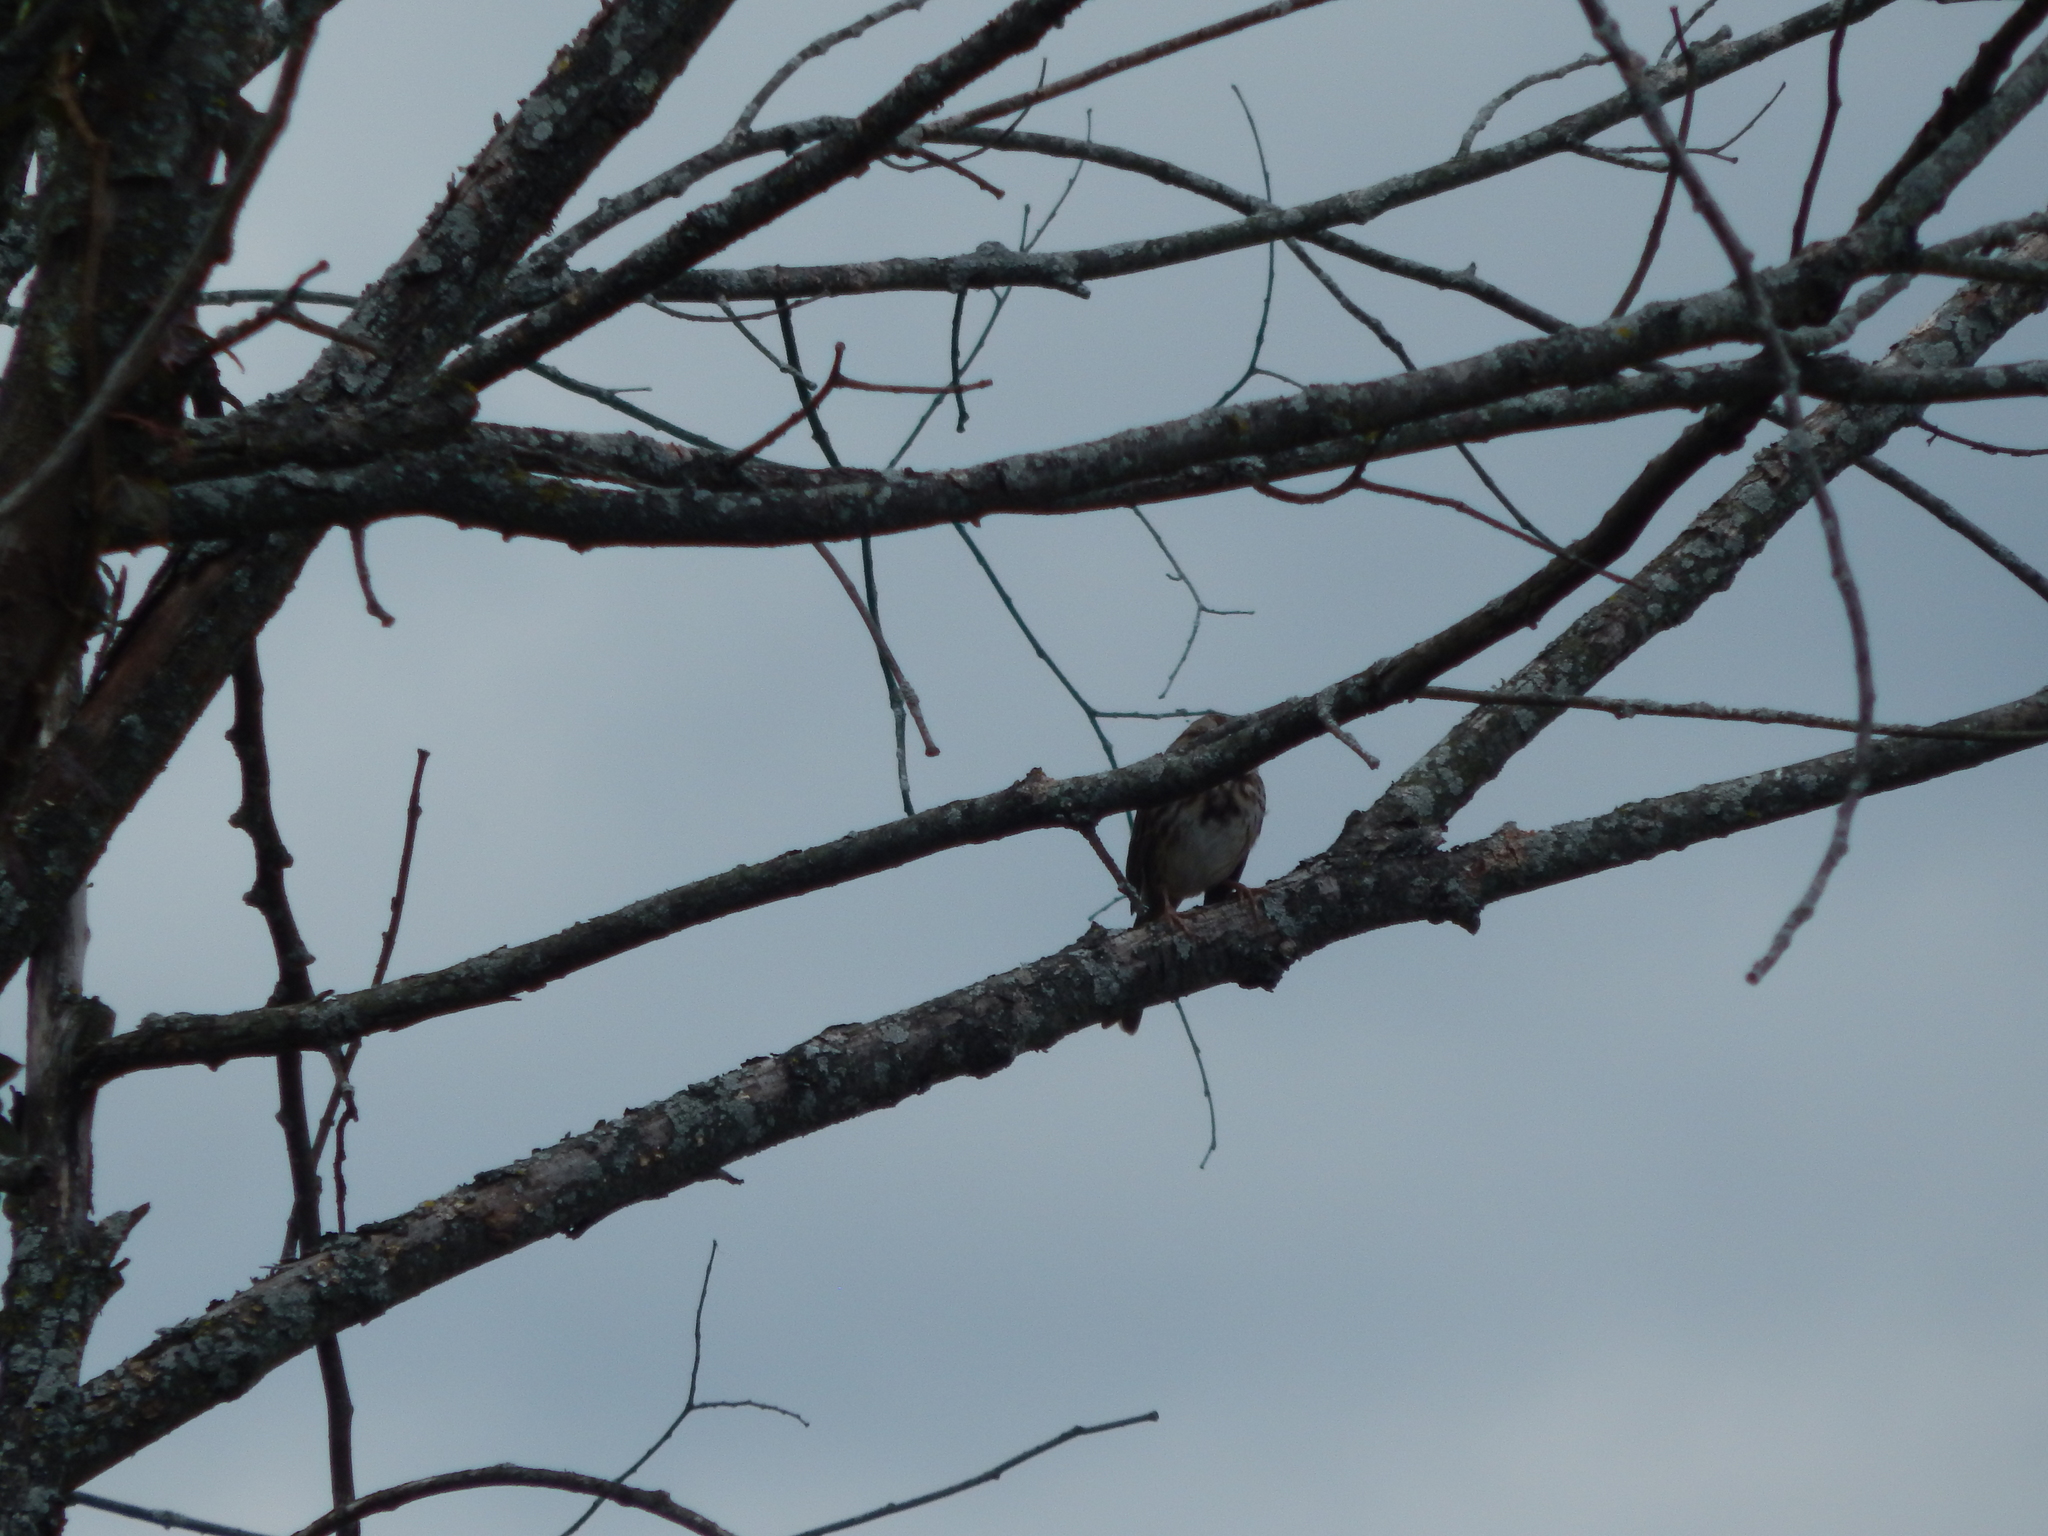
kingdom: Animalia
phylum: Chordata
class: Aves
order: Passeriformes
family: Passerellidae
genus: Melospiza
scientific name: Melospiza melodia
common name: Song sparrow
